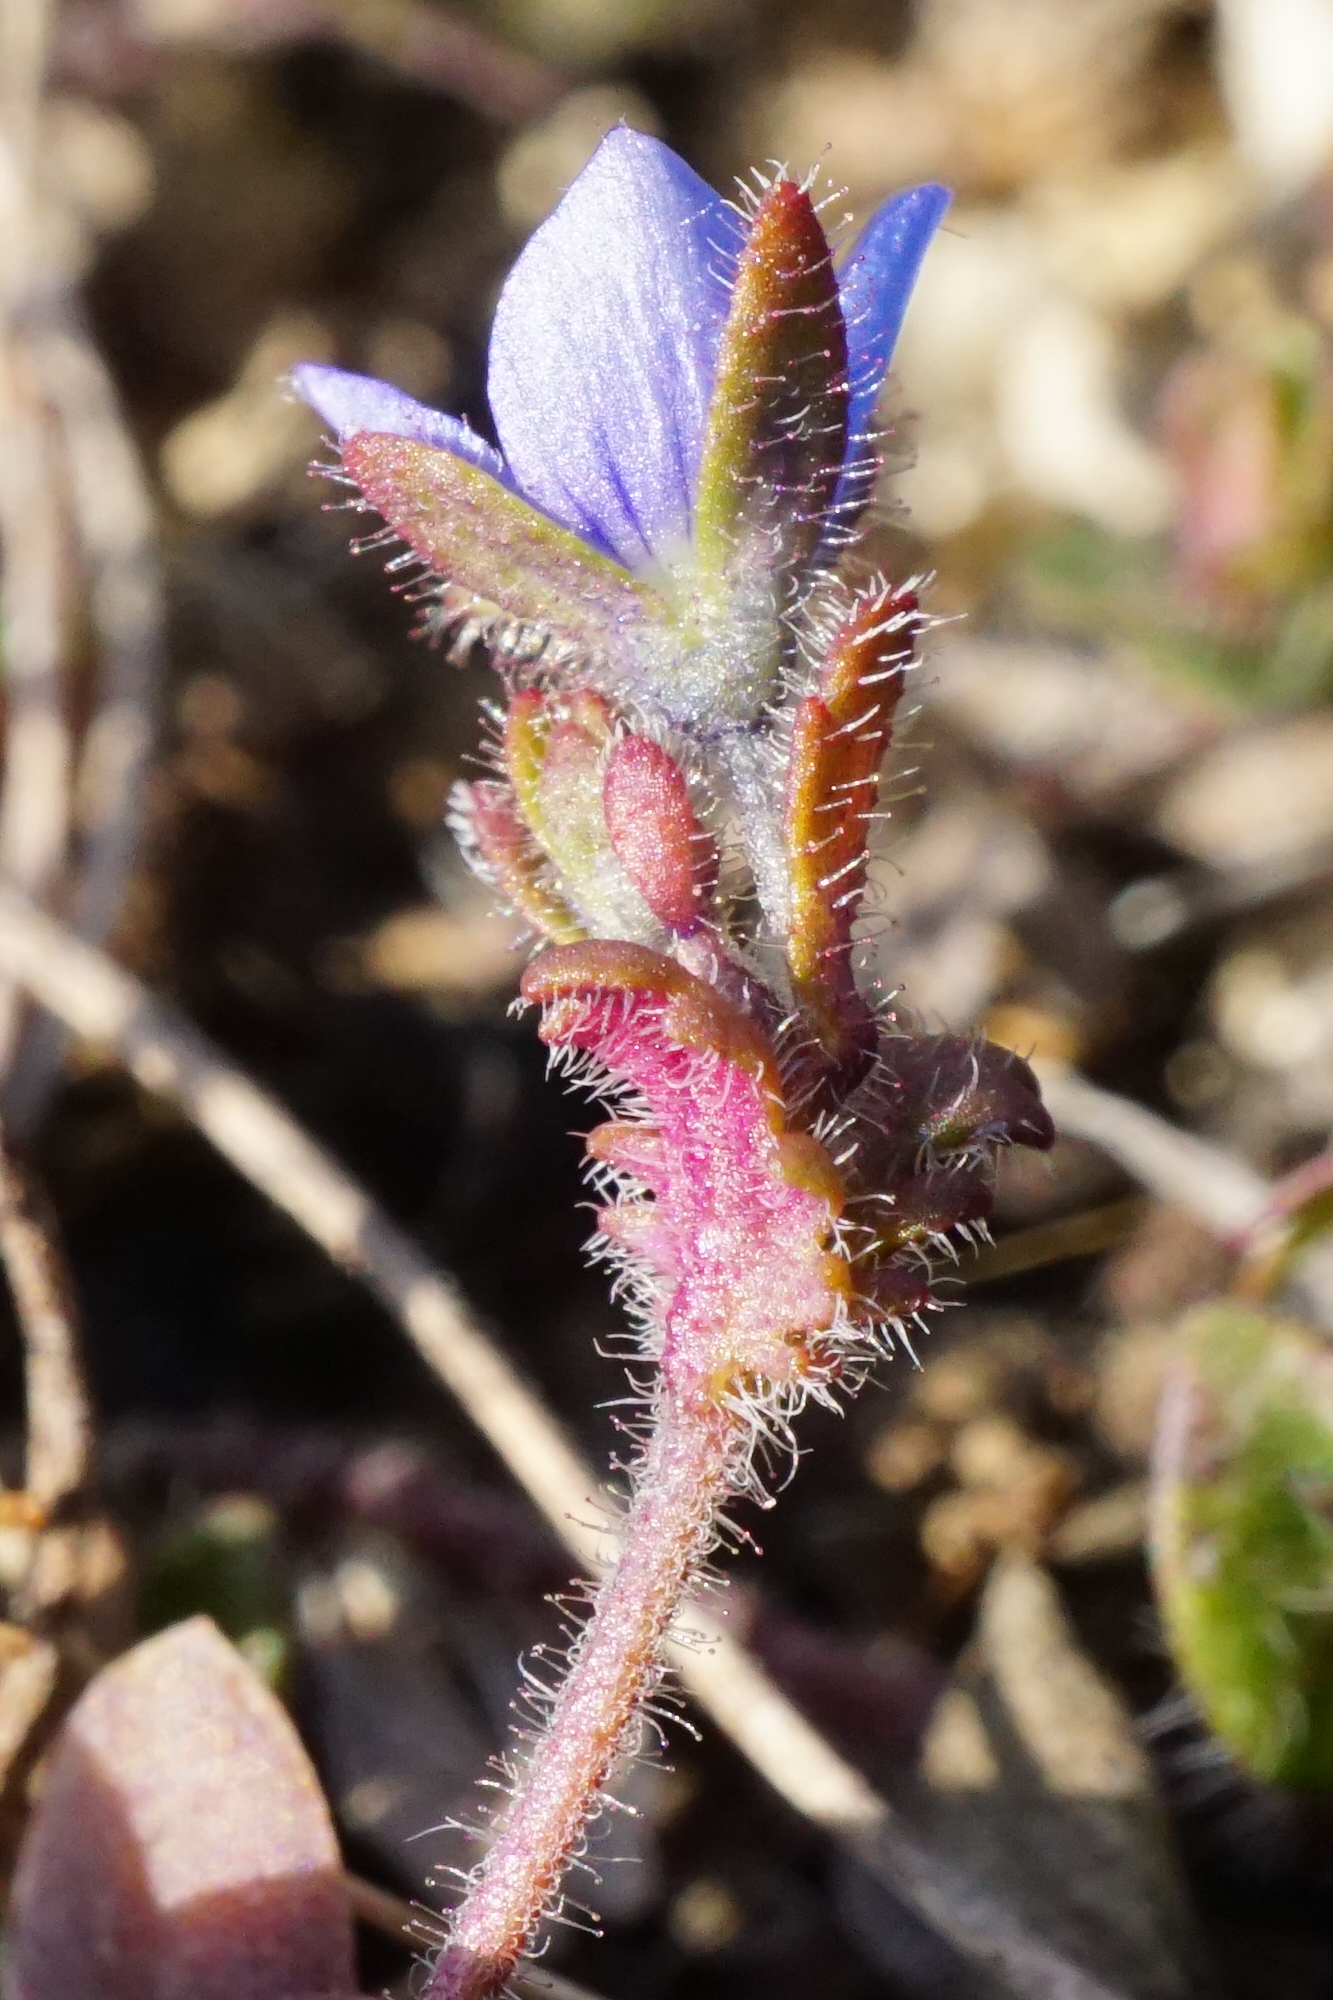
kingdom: Plantae
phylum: Tracheophyta
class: Magnoliopsida
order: Lamiales
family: Plantaginaceae
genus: Veronica
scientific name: Veronica praecox
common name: Breckland speedwell
